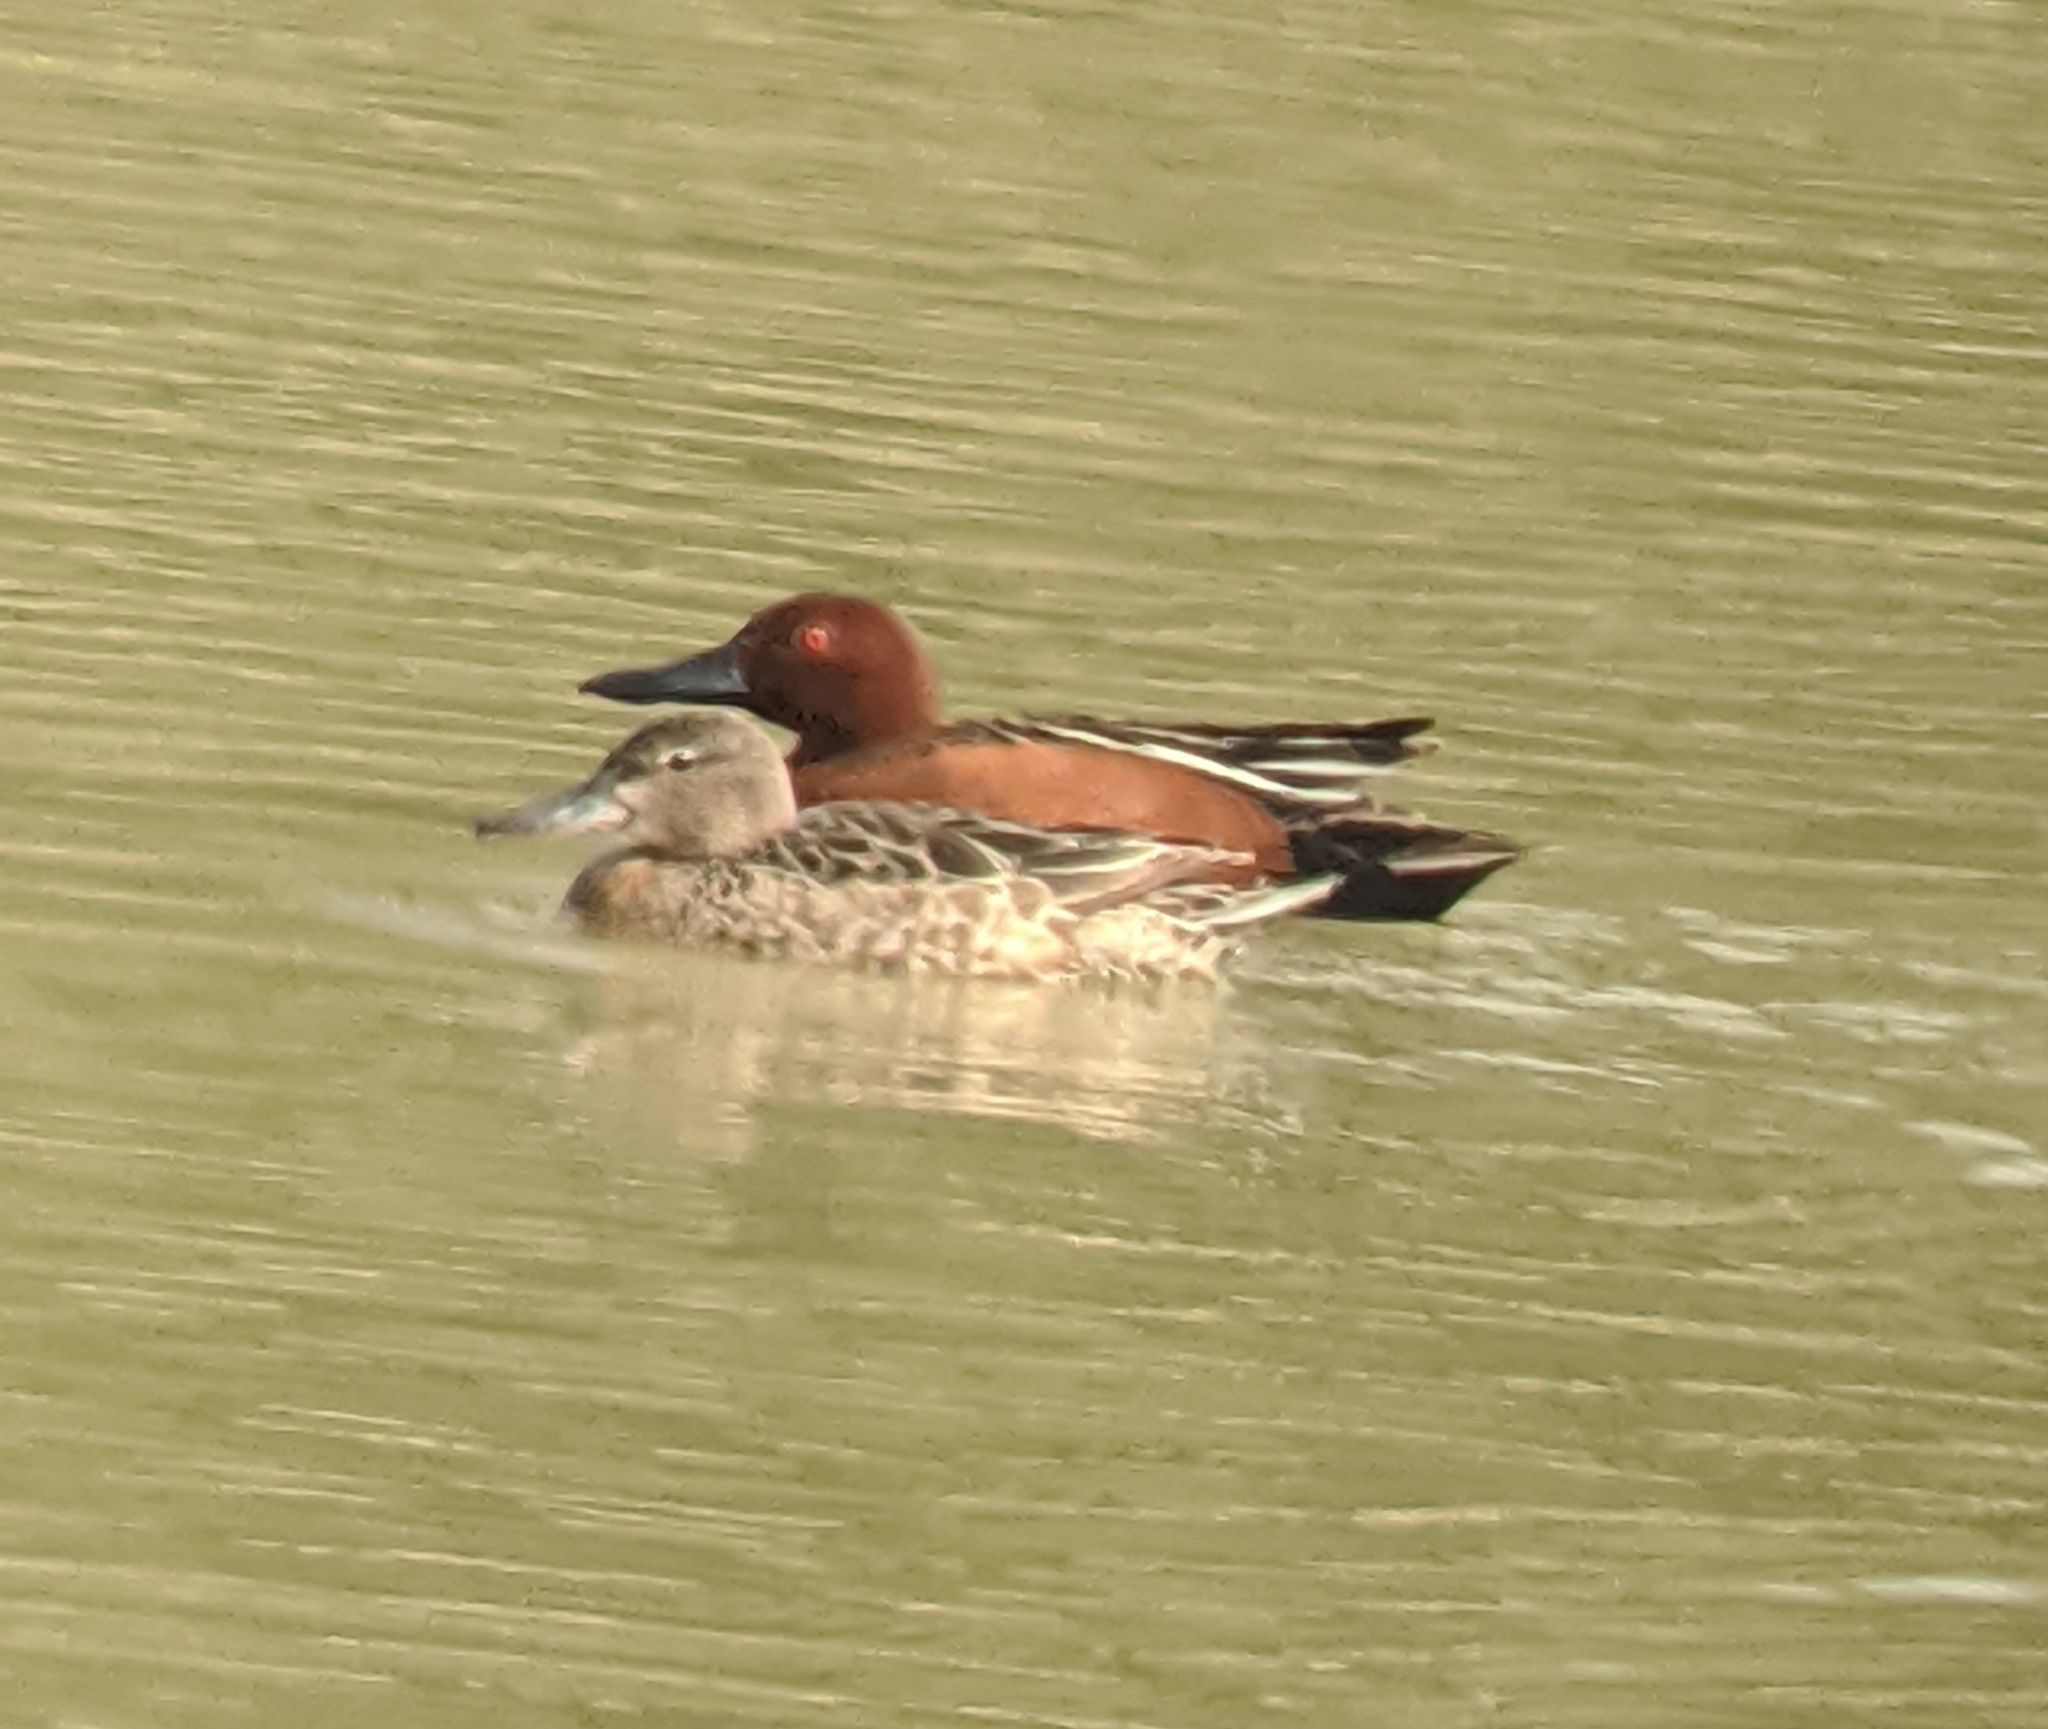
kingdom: Animalia
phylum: Chordata
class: Aves
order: Anseriformes
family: Anatidae
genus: Spatula
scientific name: Spatula cyanoptera
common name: Cinnamon teal
